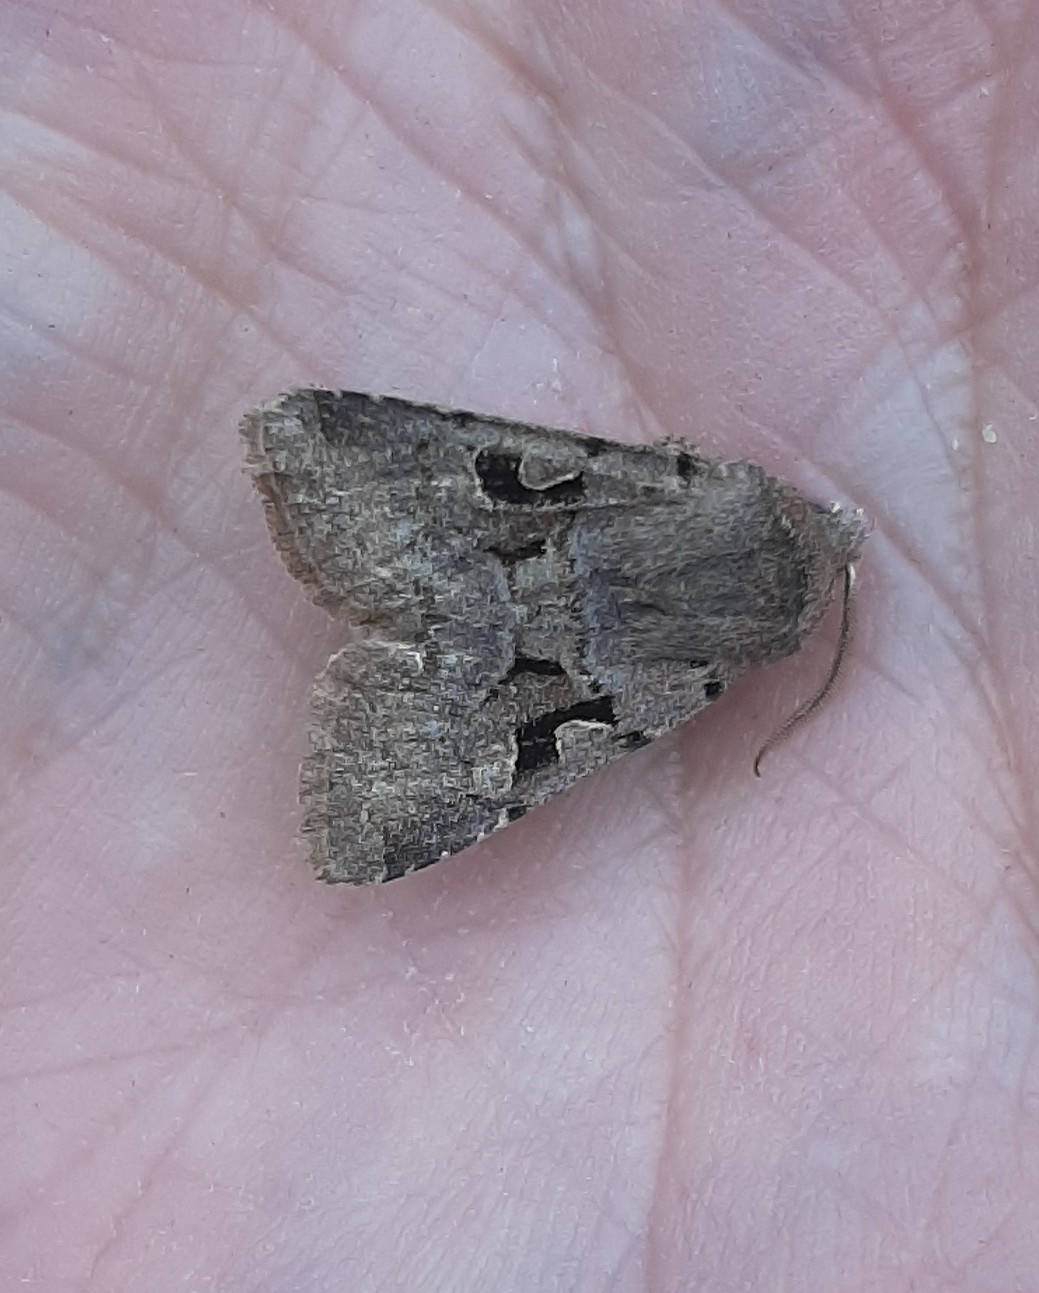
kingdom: Animalia
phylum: Arthropoda
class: Insecta
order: Lepidoptera
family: Noctuidae
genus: Orthosia
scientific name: Orthosia gothica
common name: Hebrew character
